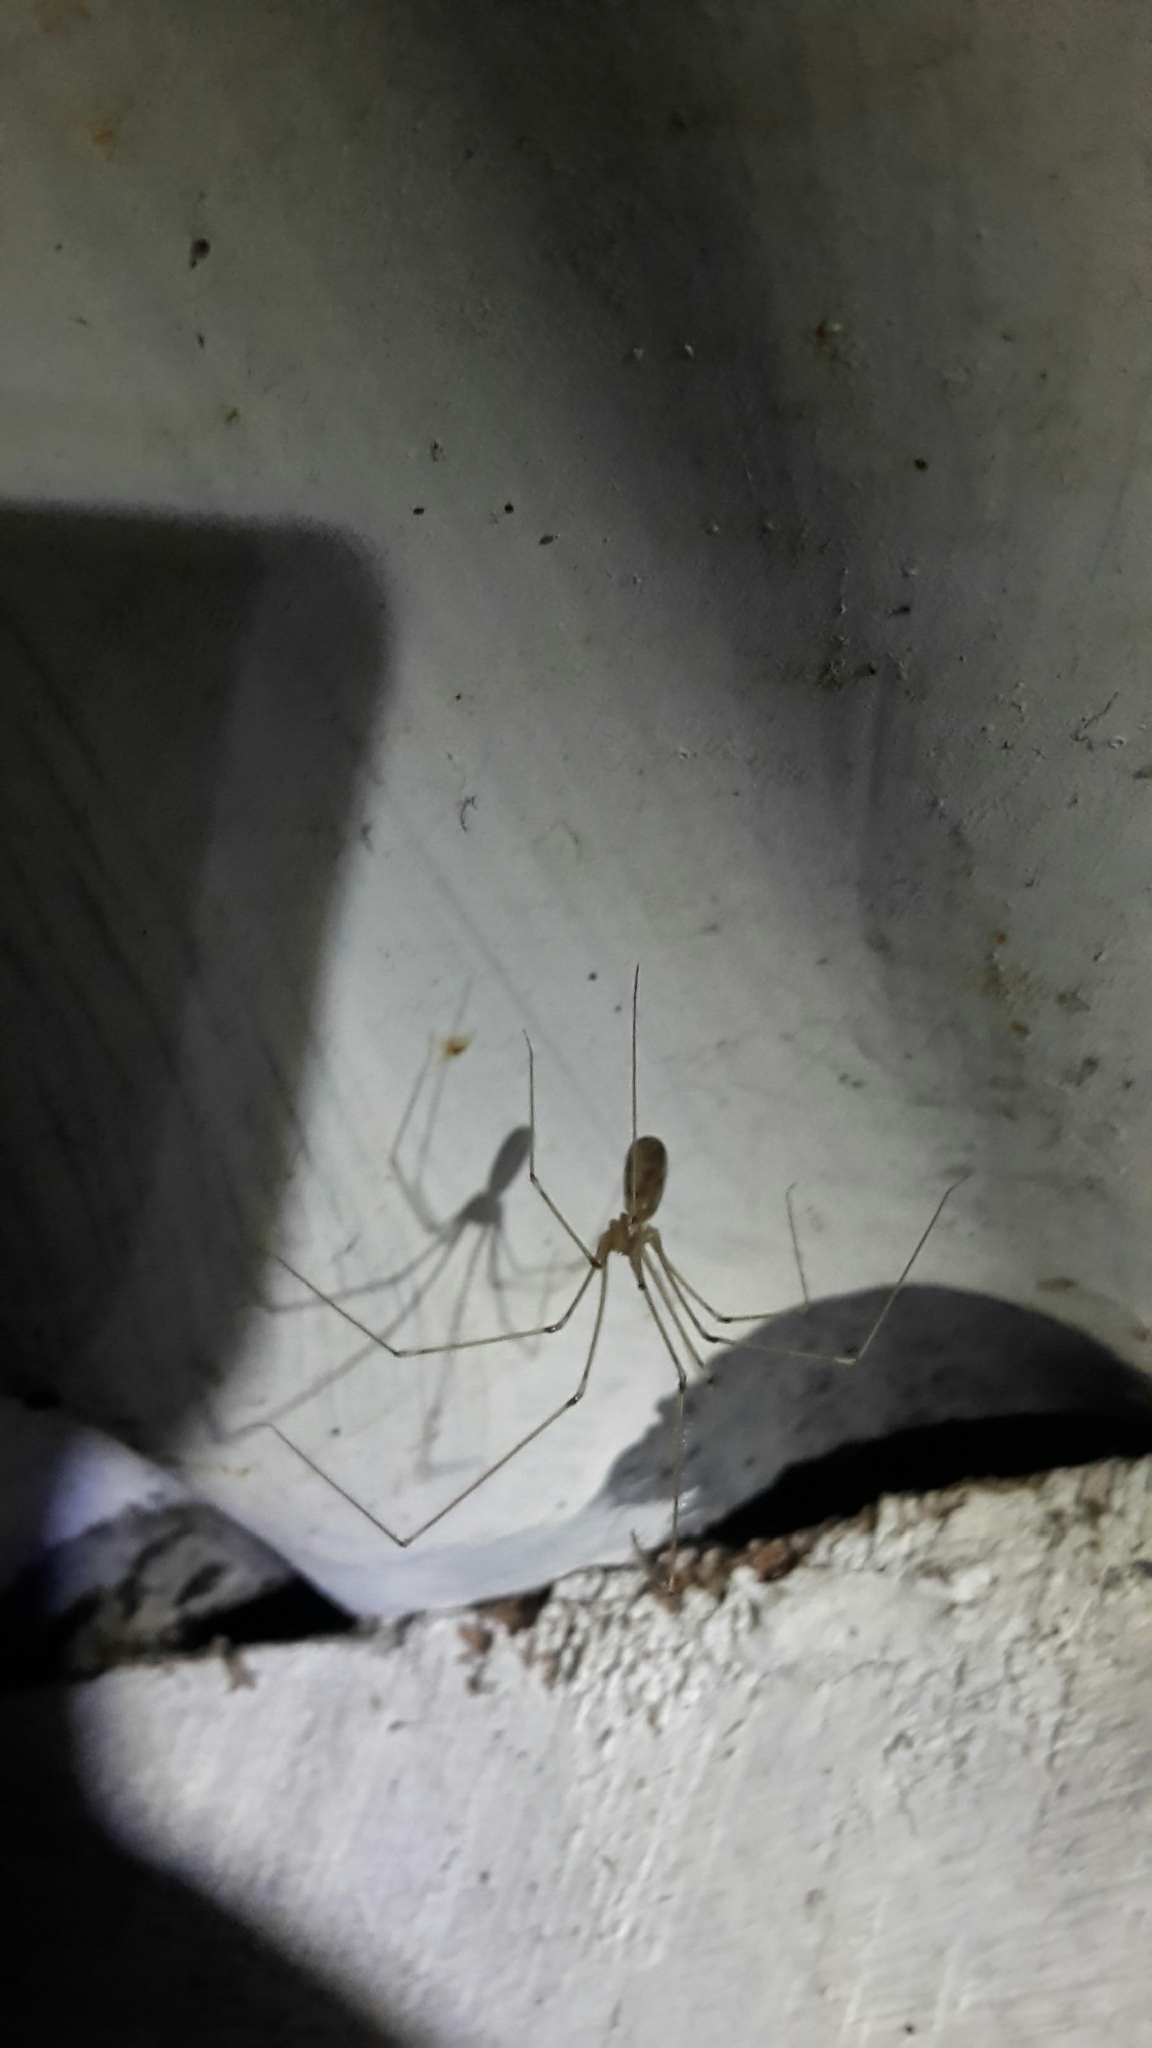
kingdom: Animalia
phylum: Arthropoda
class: Arachnida
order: Araneae
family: Pholcidae
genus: Pholcus
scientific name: Pholcus phalangioides
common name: Longbodied cellar spider
